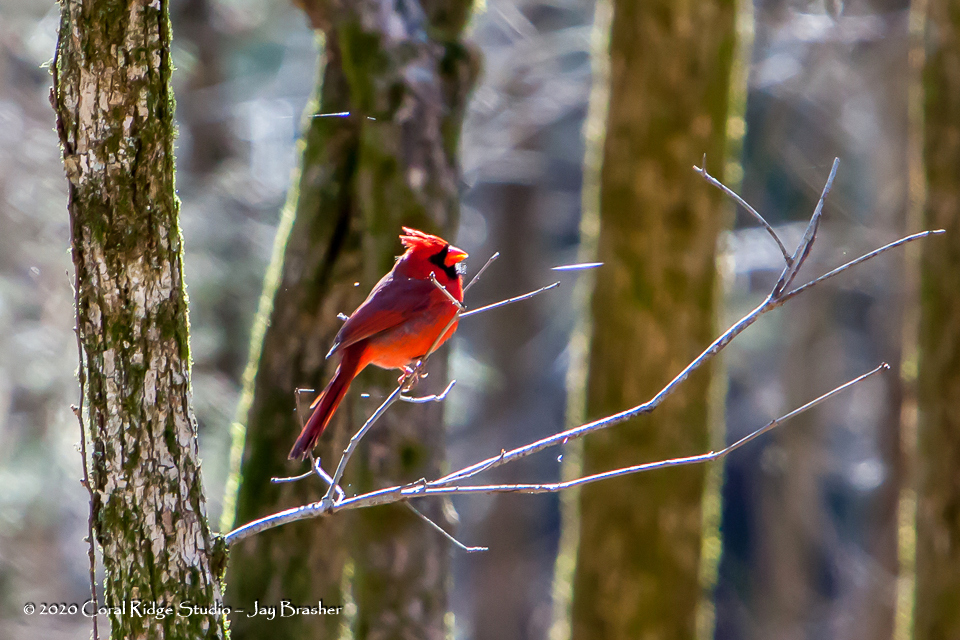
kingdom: Animalia
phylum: Chordata
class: Aves
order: Passeriformes
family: Cardinalidae
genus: Cardinalis
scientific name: Cardinalis cardinalis
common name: Northern cardinal
